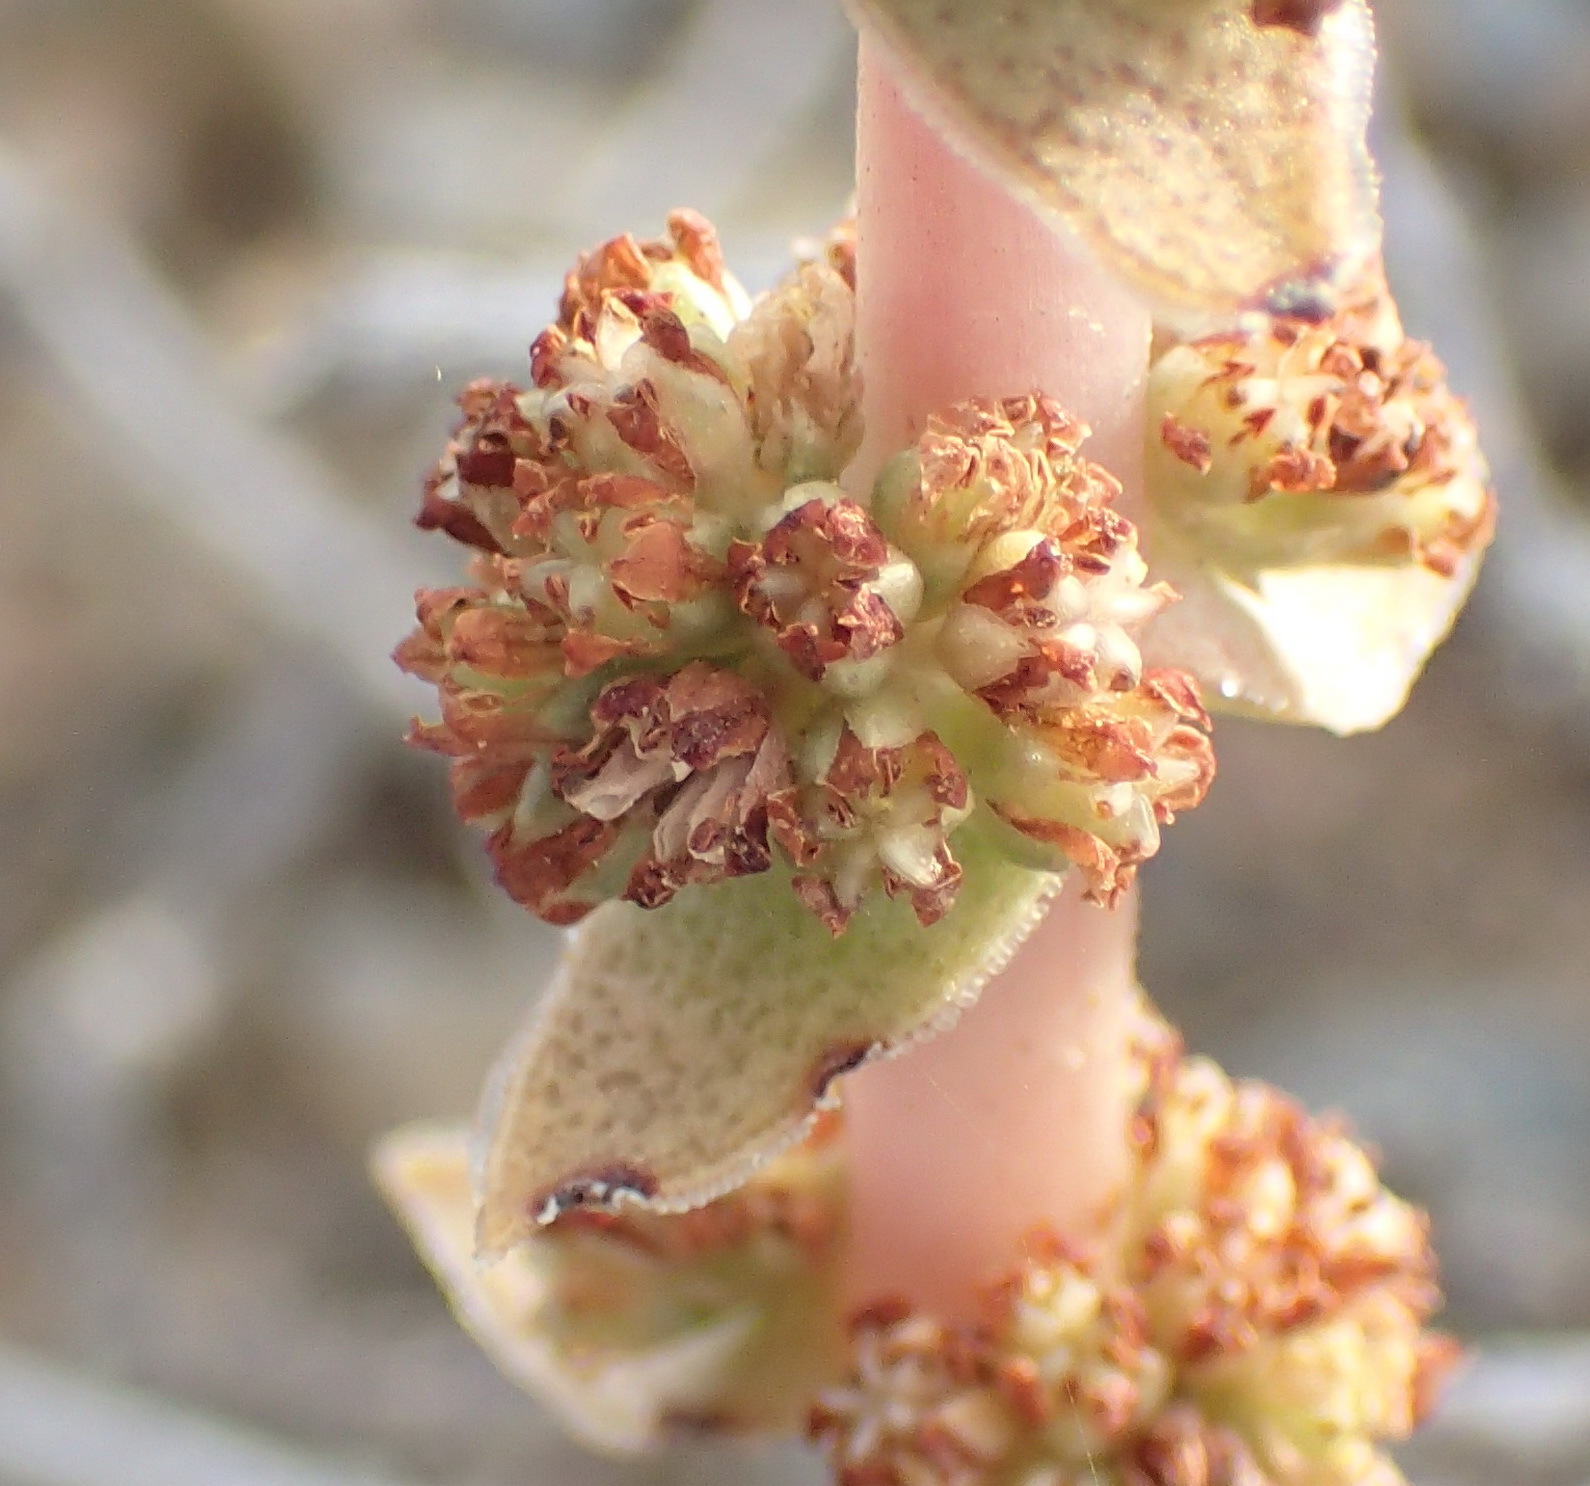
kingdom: Plantae
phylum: Tracheophyta
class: Magnoliopsida
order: Saxifragales
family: Crassulaceae
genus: Crassula
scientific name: Crassula capitella
